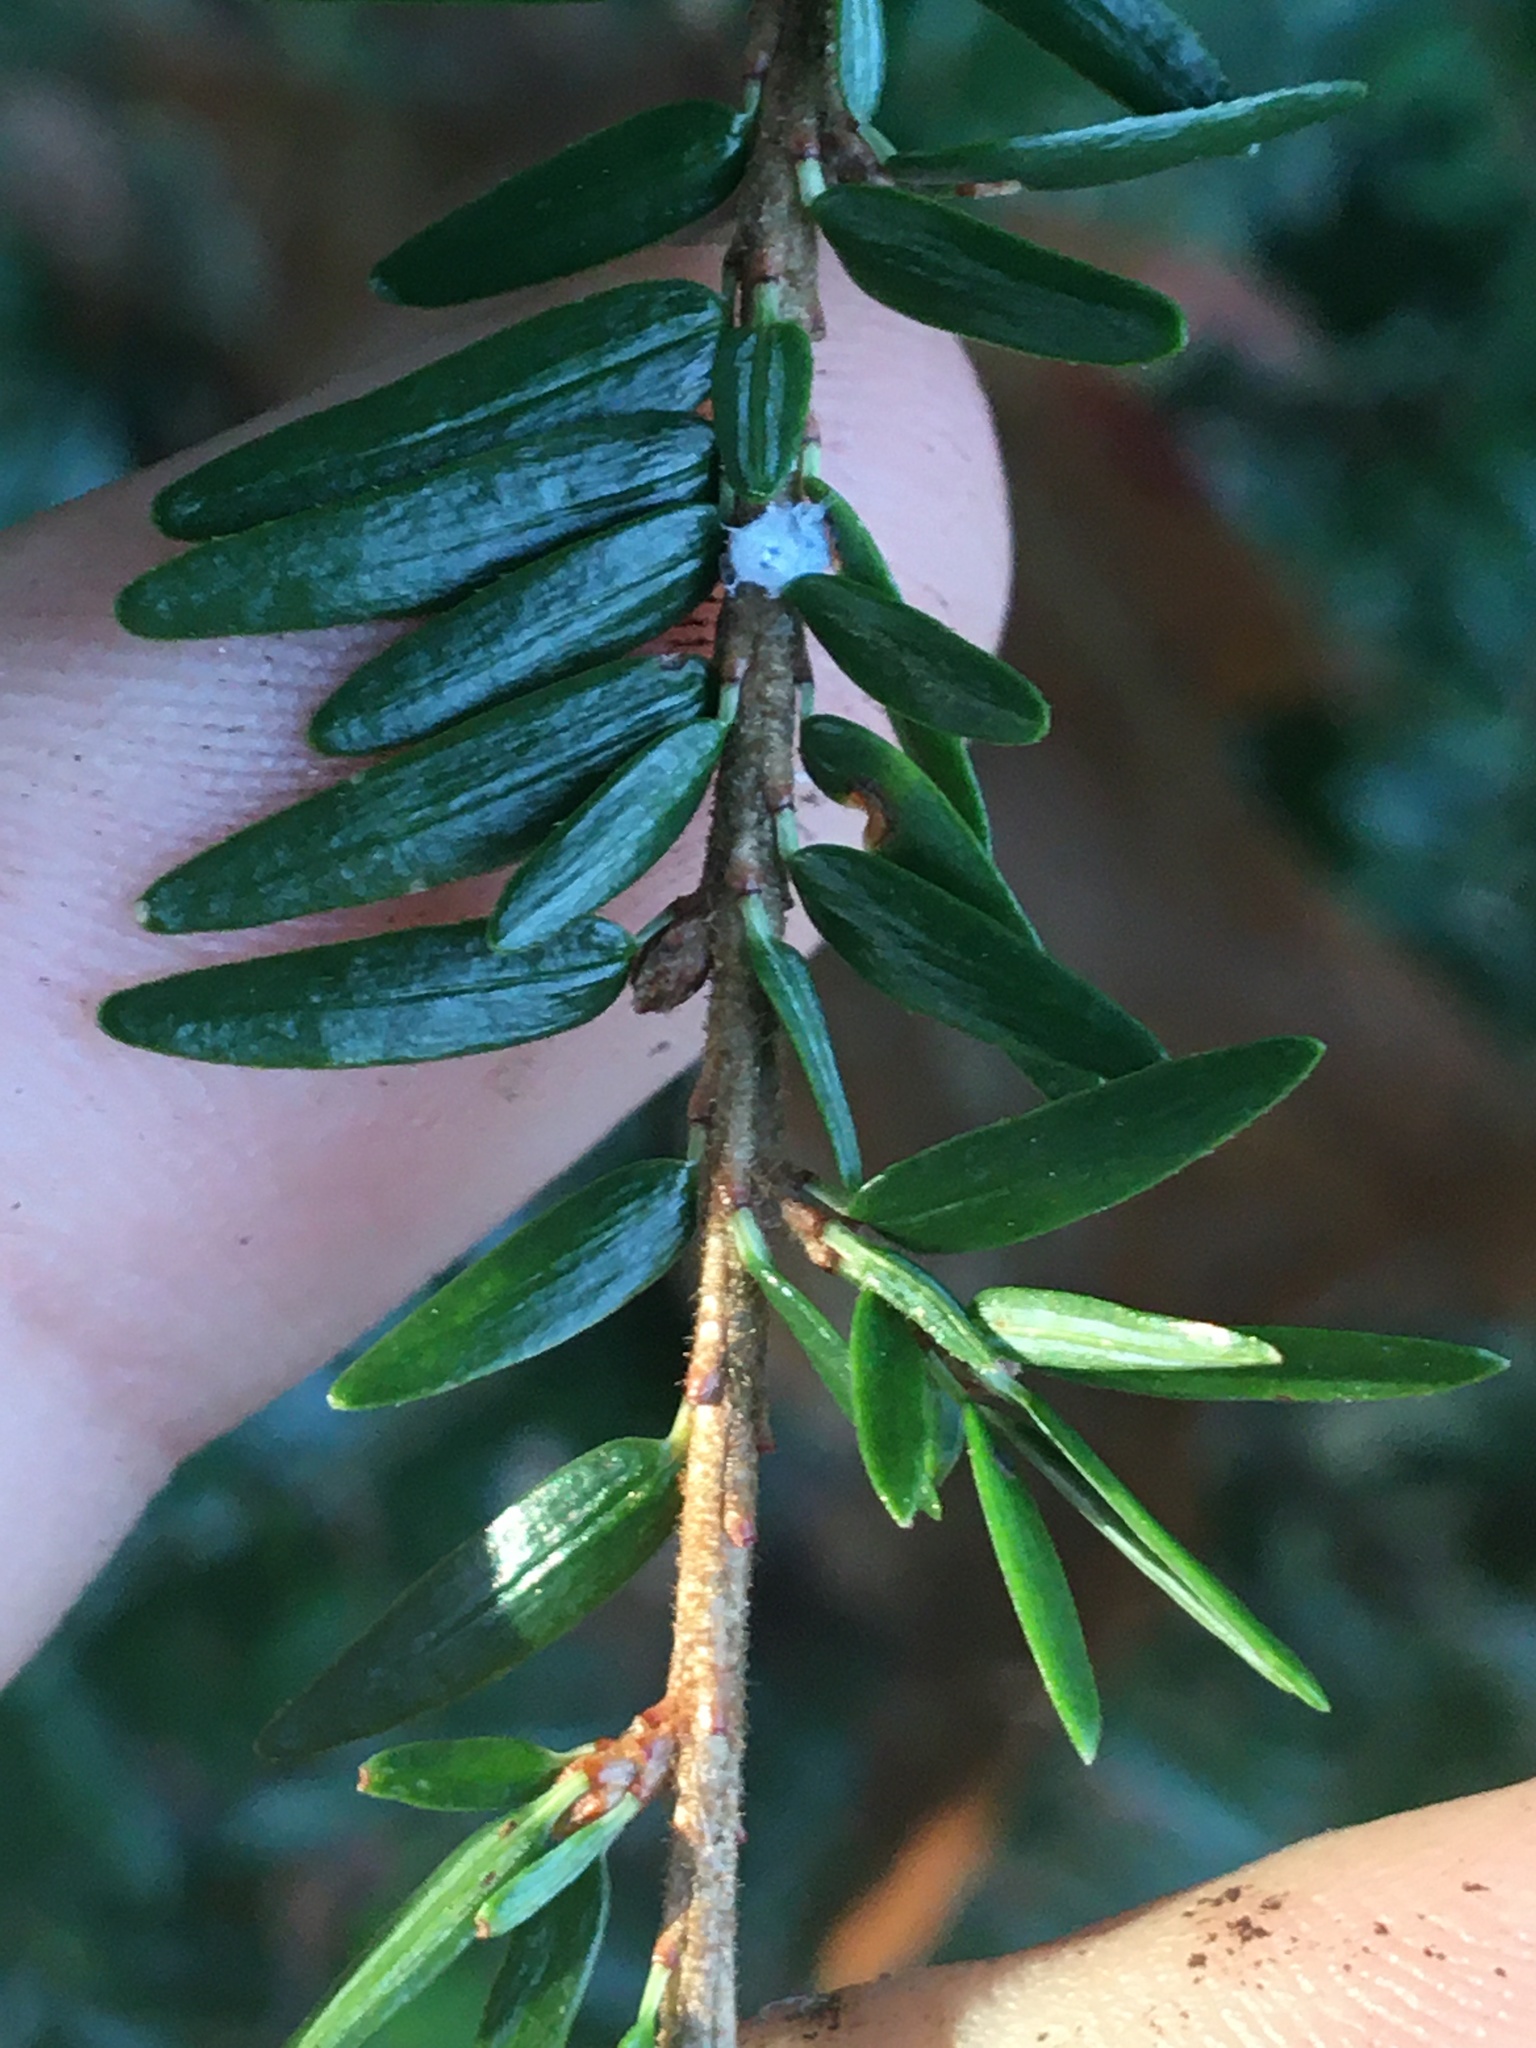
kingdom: Animalia
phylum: Arthropoda
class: Insecta
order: Hemiptera
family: Adelgidae
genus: Adelges
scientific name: Adelges tsugae
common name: Hemlock woolly adelgid
